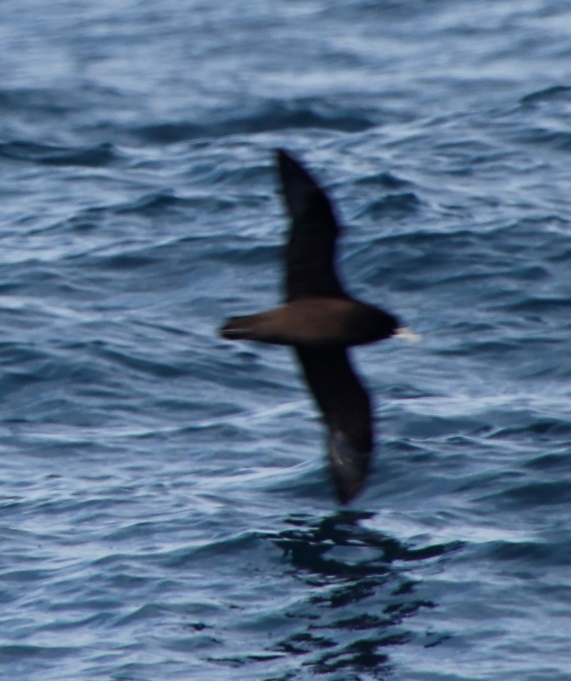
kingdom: Animalia
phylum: Chordata
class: Aves
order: Procellariiformes
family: Procellariidae
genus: Procellaria
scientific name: Procellaria aequinoctialis
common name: White-chinned petrel
